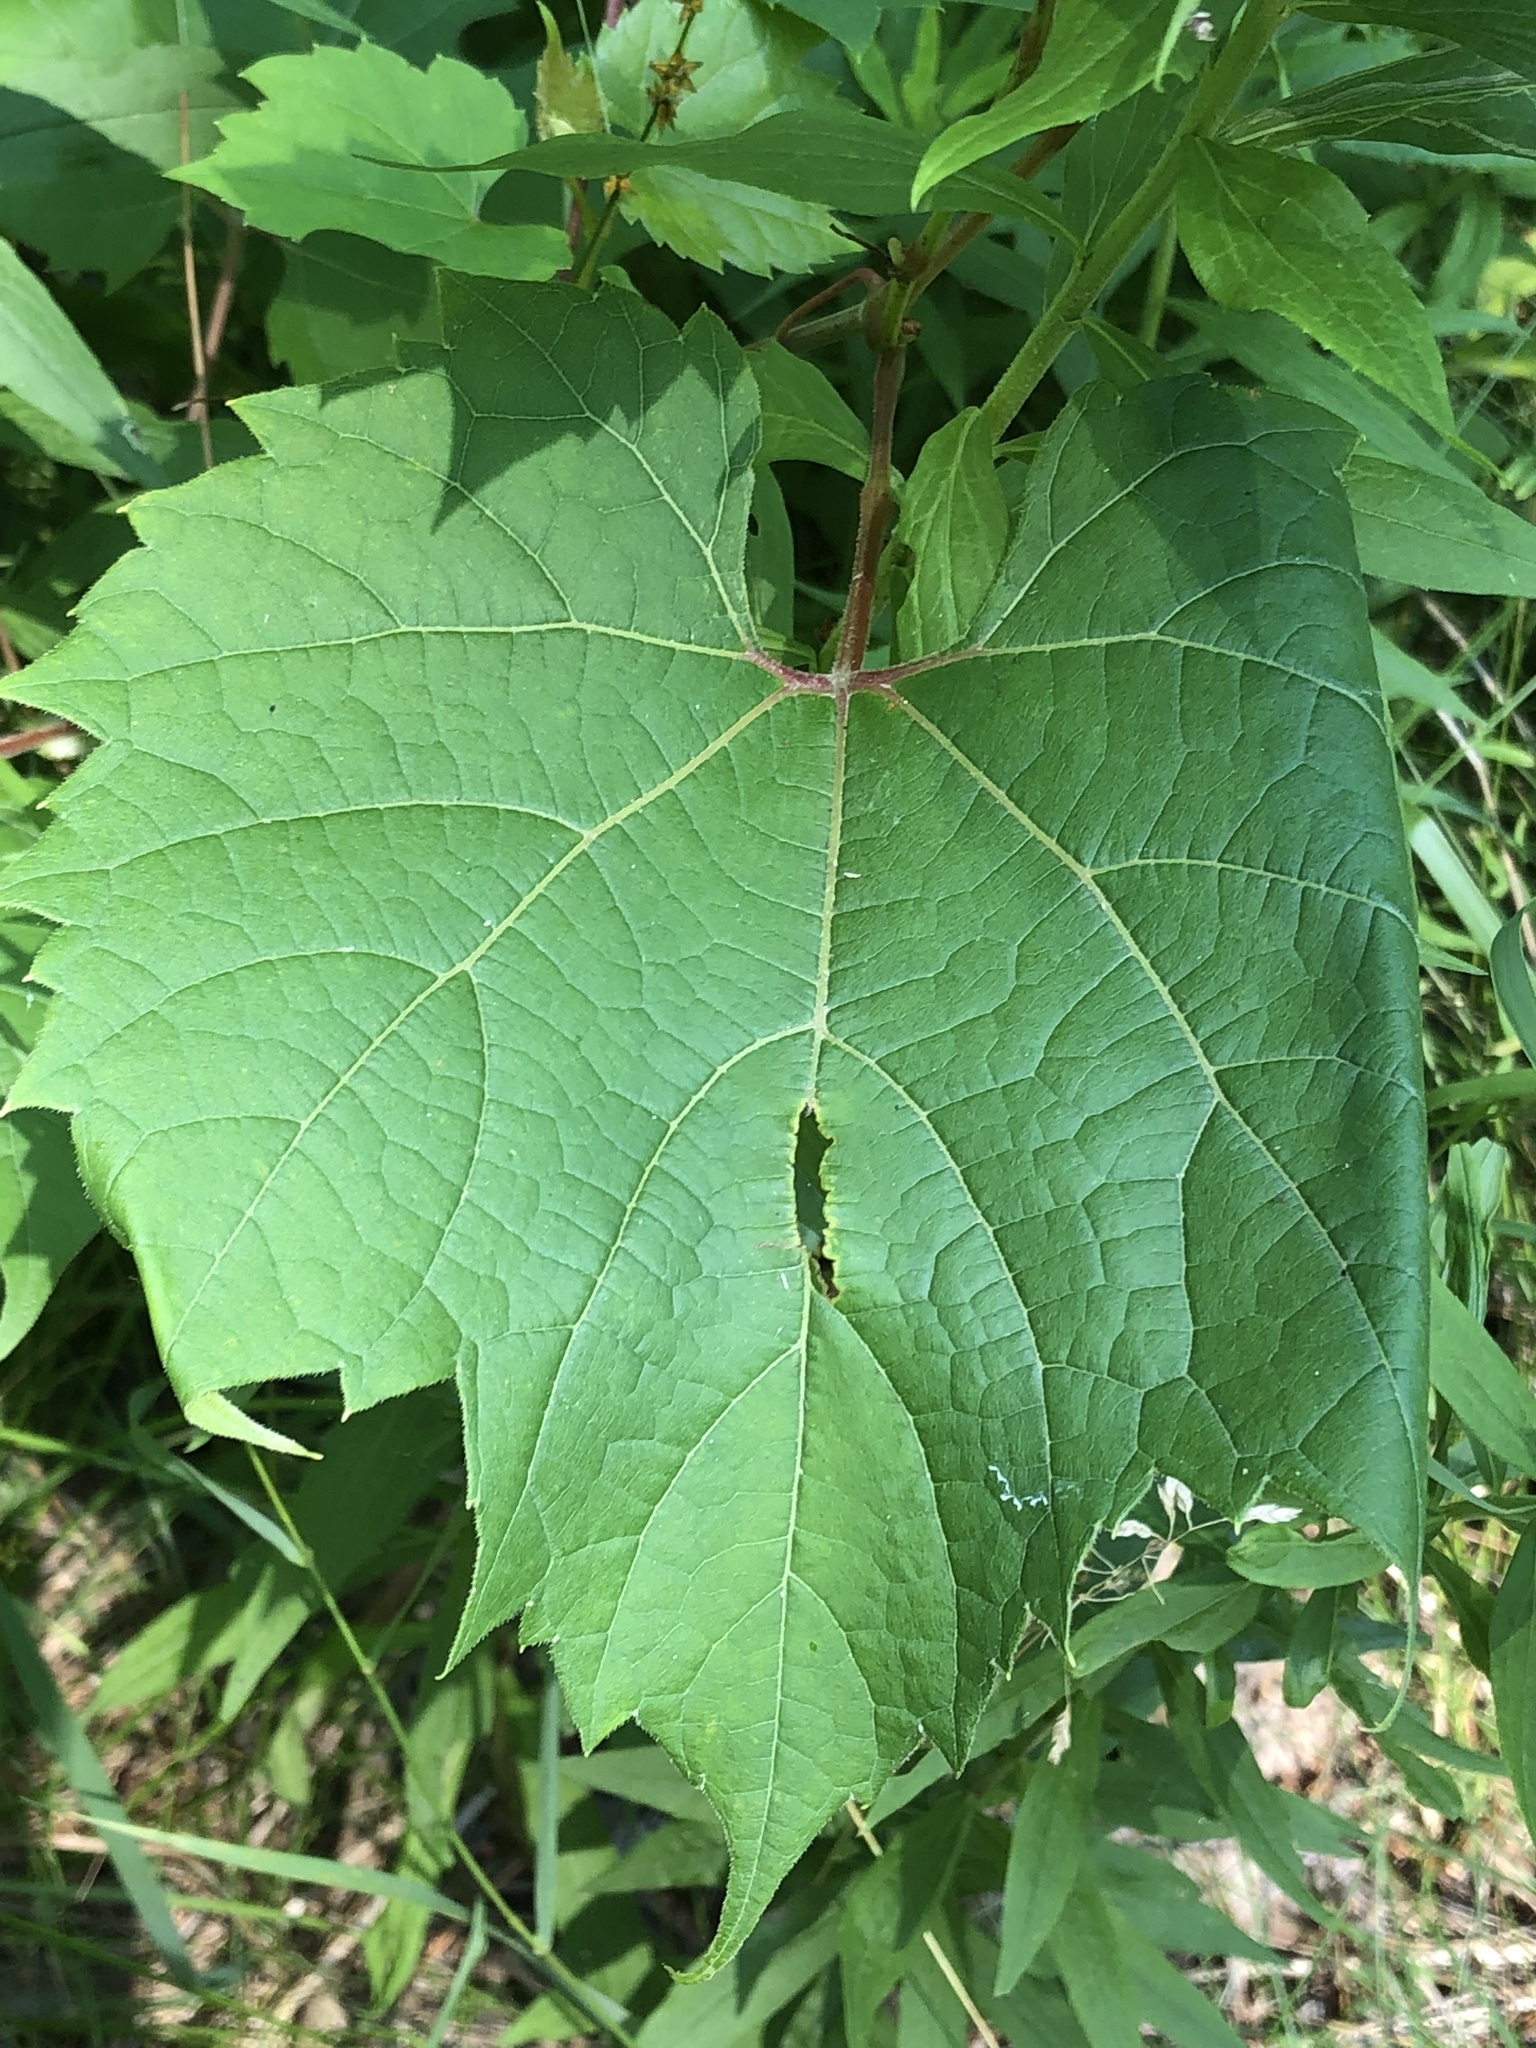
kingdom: Plantae
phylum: Tracheophyta
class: Magnoliopsida
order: Vitales
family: Vitaceae
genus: Vitis
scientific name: Vitis riparia
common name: Frost grape
